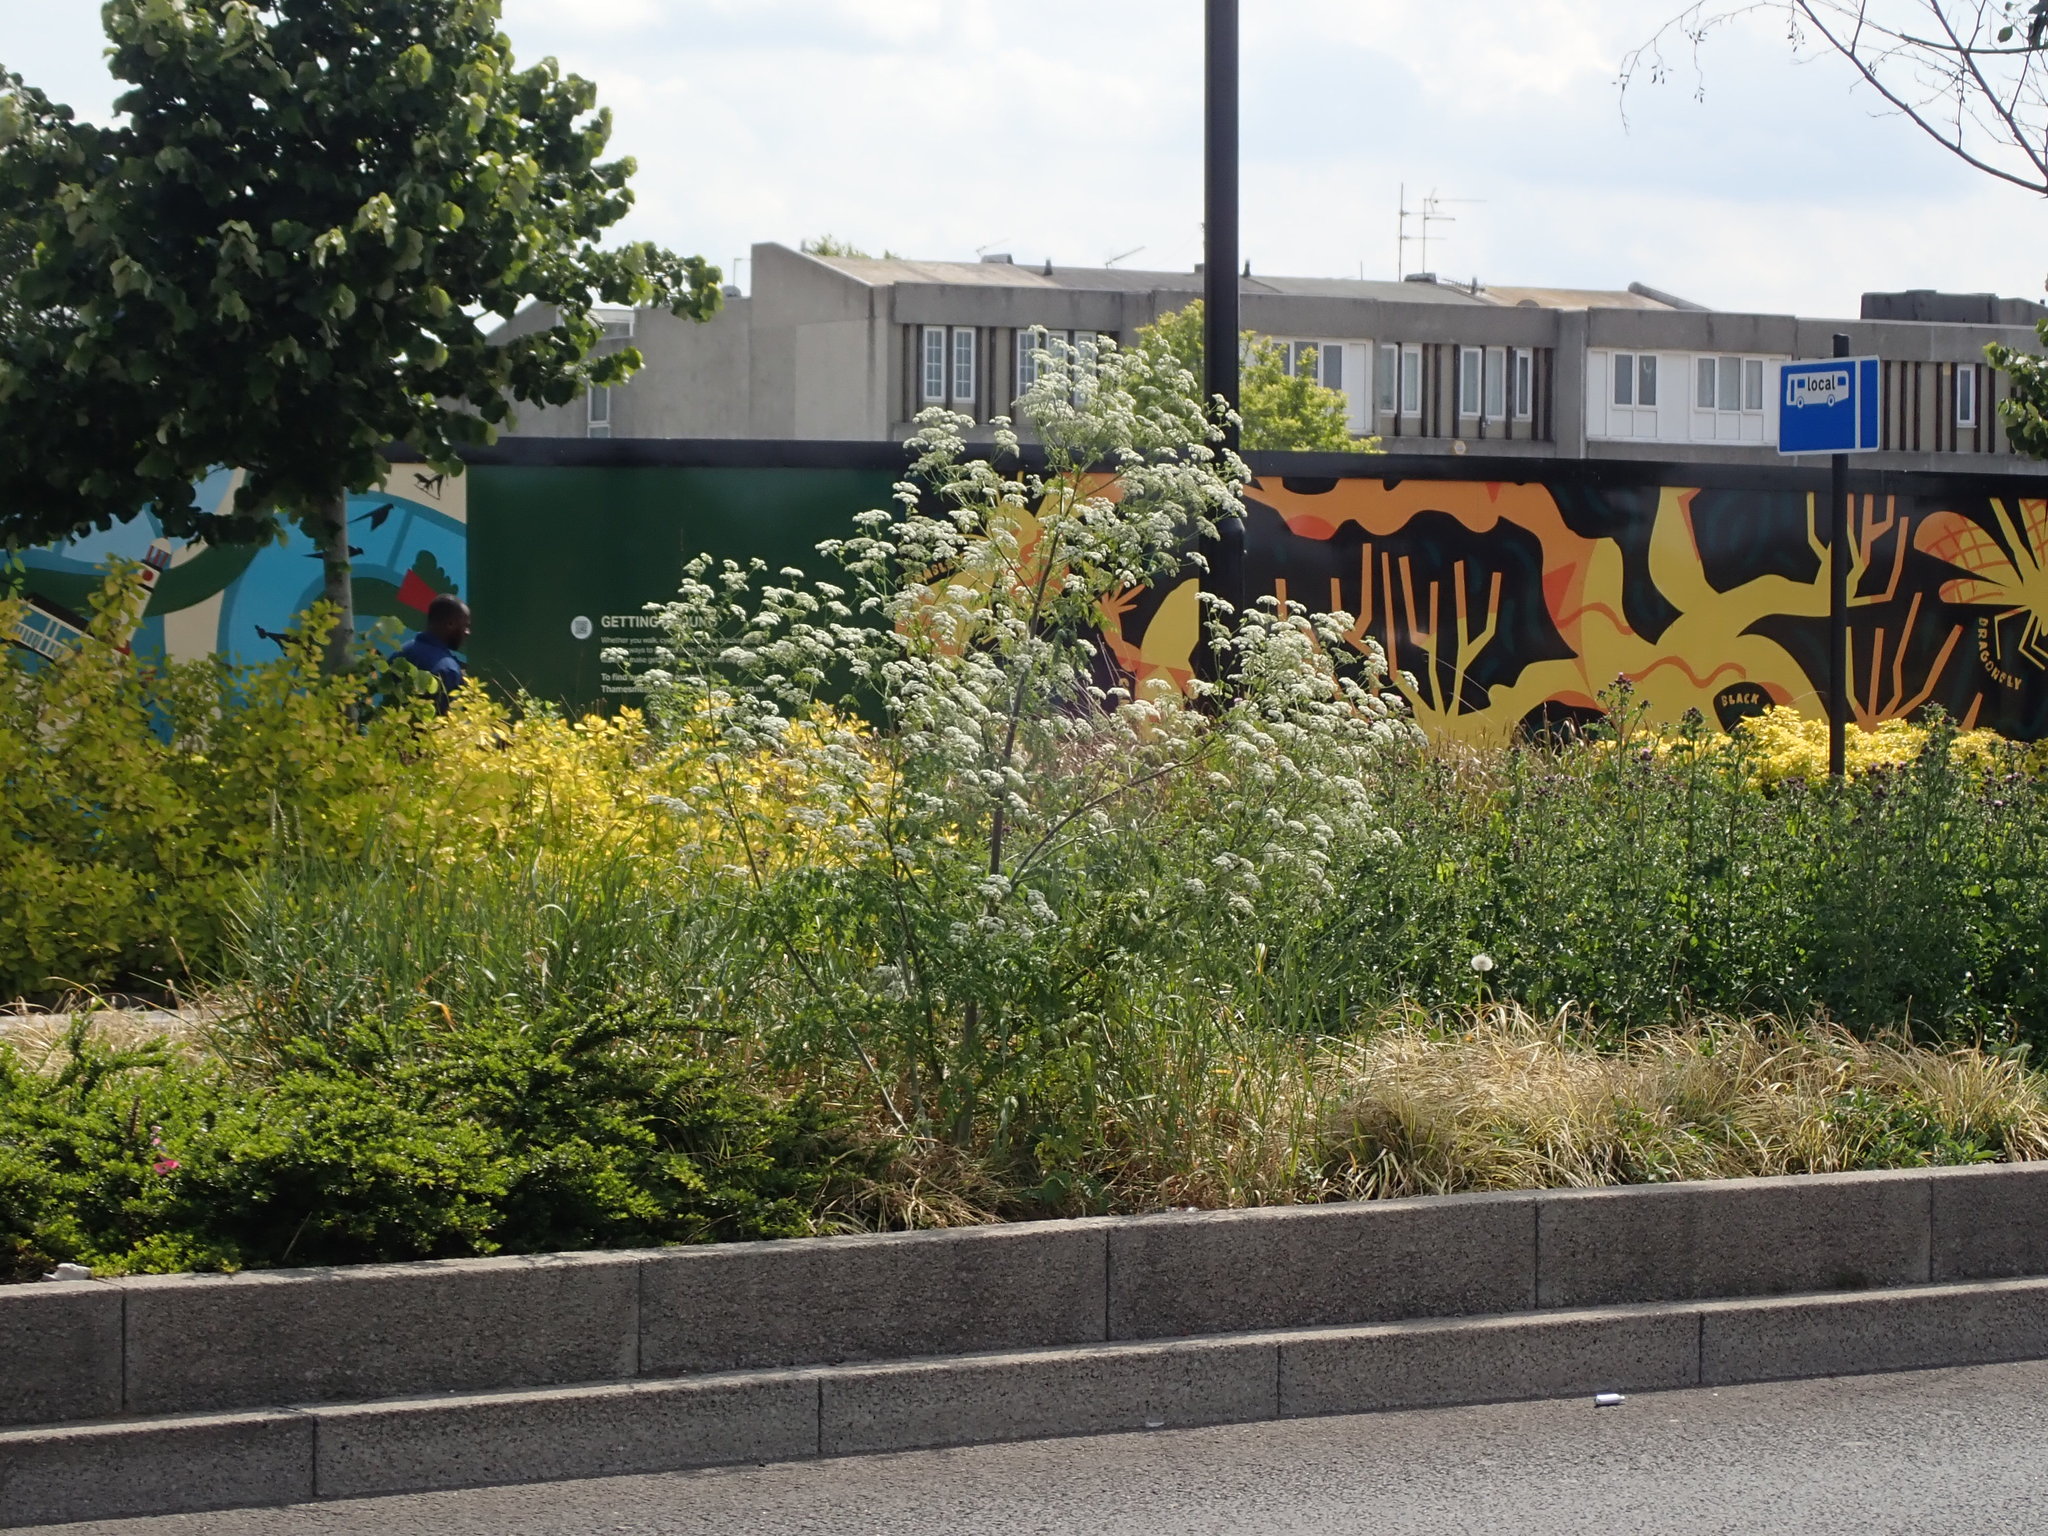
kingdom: Plantae
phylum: Tracheophyta
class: Magnoliopsida
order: Apiales
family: Apiaceae
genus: Conium
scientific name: Conium maculatum
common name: Hemlock
